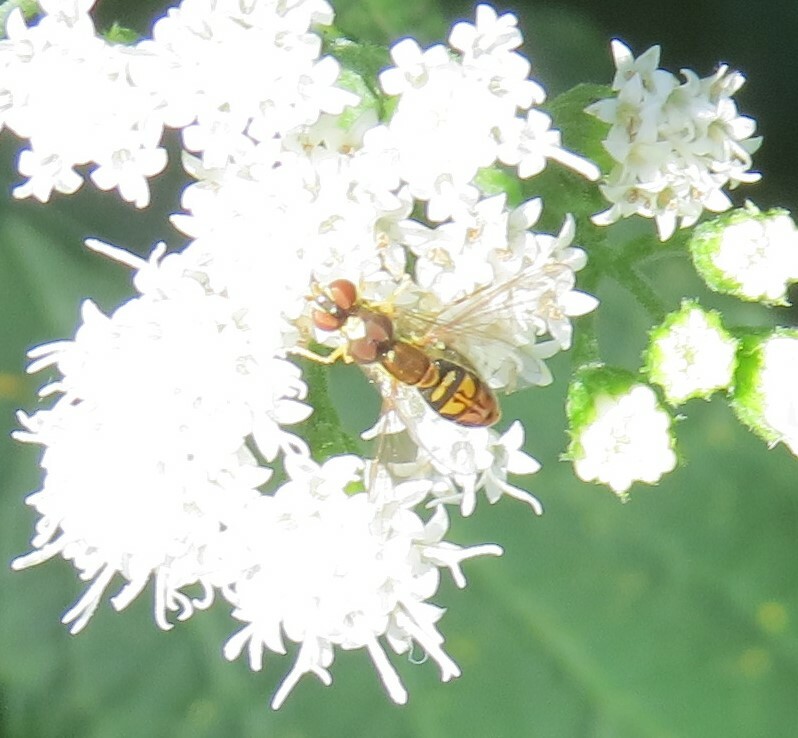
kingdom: Animalia
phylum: Arthropoda
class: Insecta
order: Diptera
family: Syrphidae
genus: Toxomerus
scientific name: Toxomerus marginatus
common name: Syrphid fly
